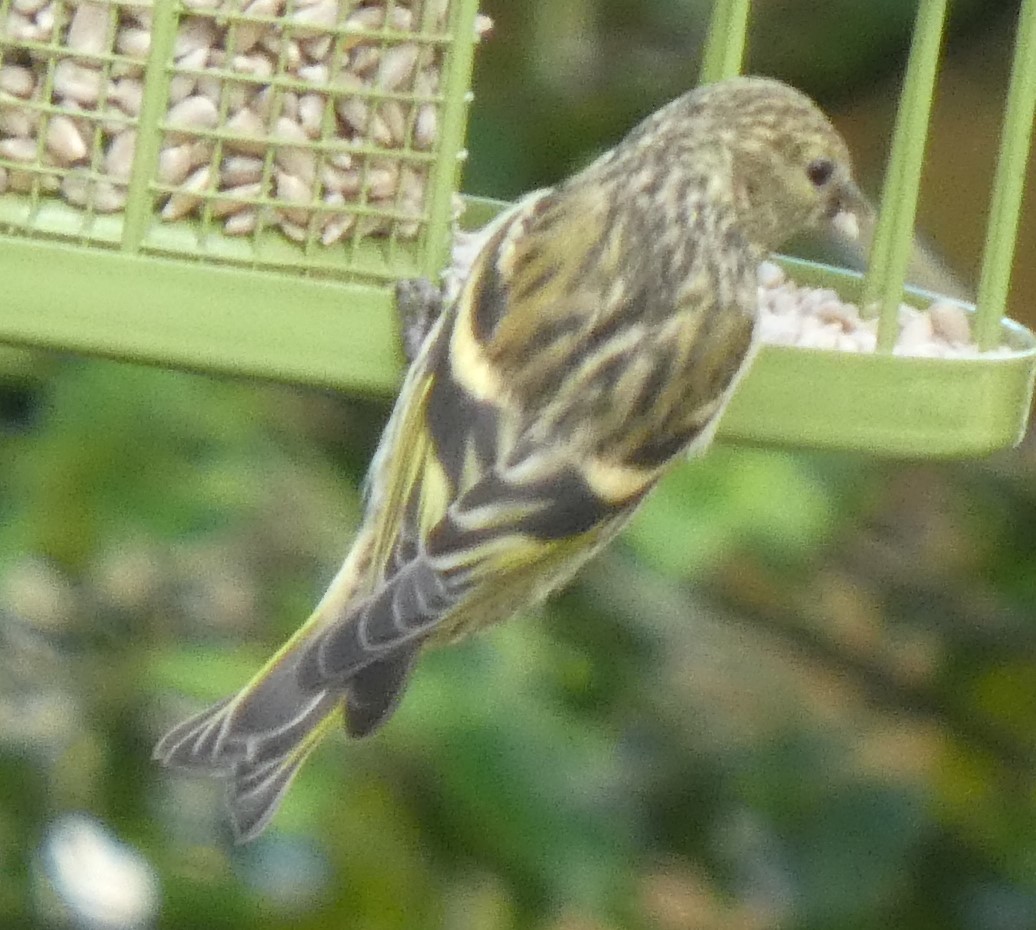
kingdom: Animalia
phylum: Chordata
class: Aves
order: Passeriformes
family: Fringillidae
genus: Spinus
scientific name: Spinus spinus
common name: Eurasian siskin
